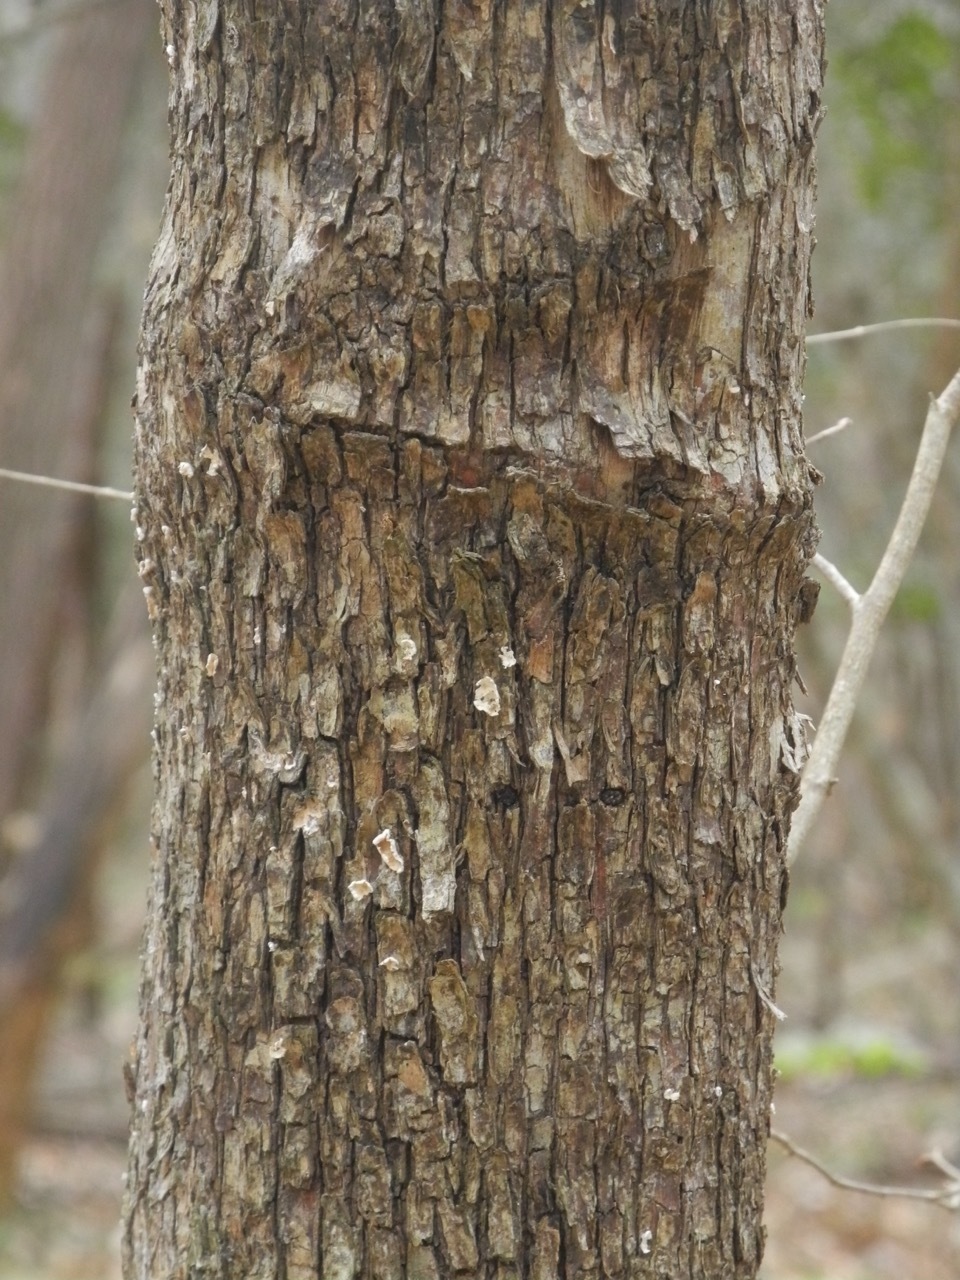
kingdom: Plantae
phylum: Tracheophyta
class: Magnoliopsida
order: Fagales
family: Betulaceae
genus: Ostrya
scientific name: Ostrya virginiana
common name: Ironwood
